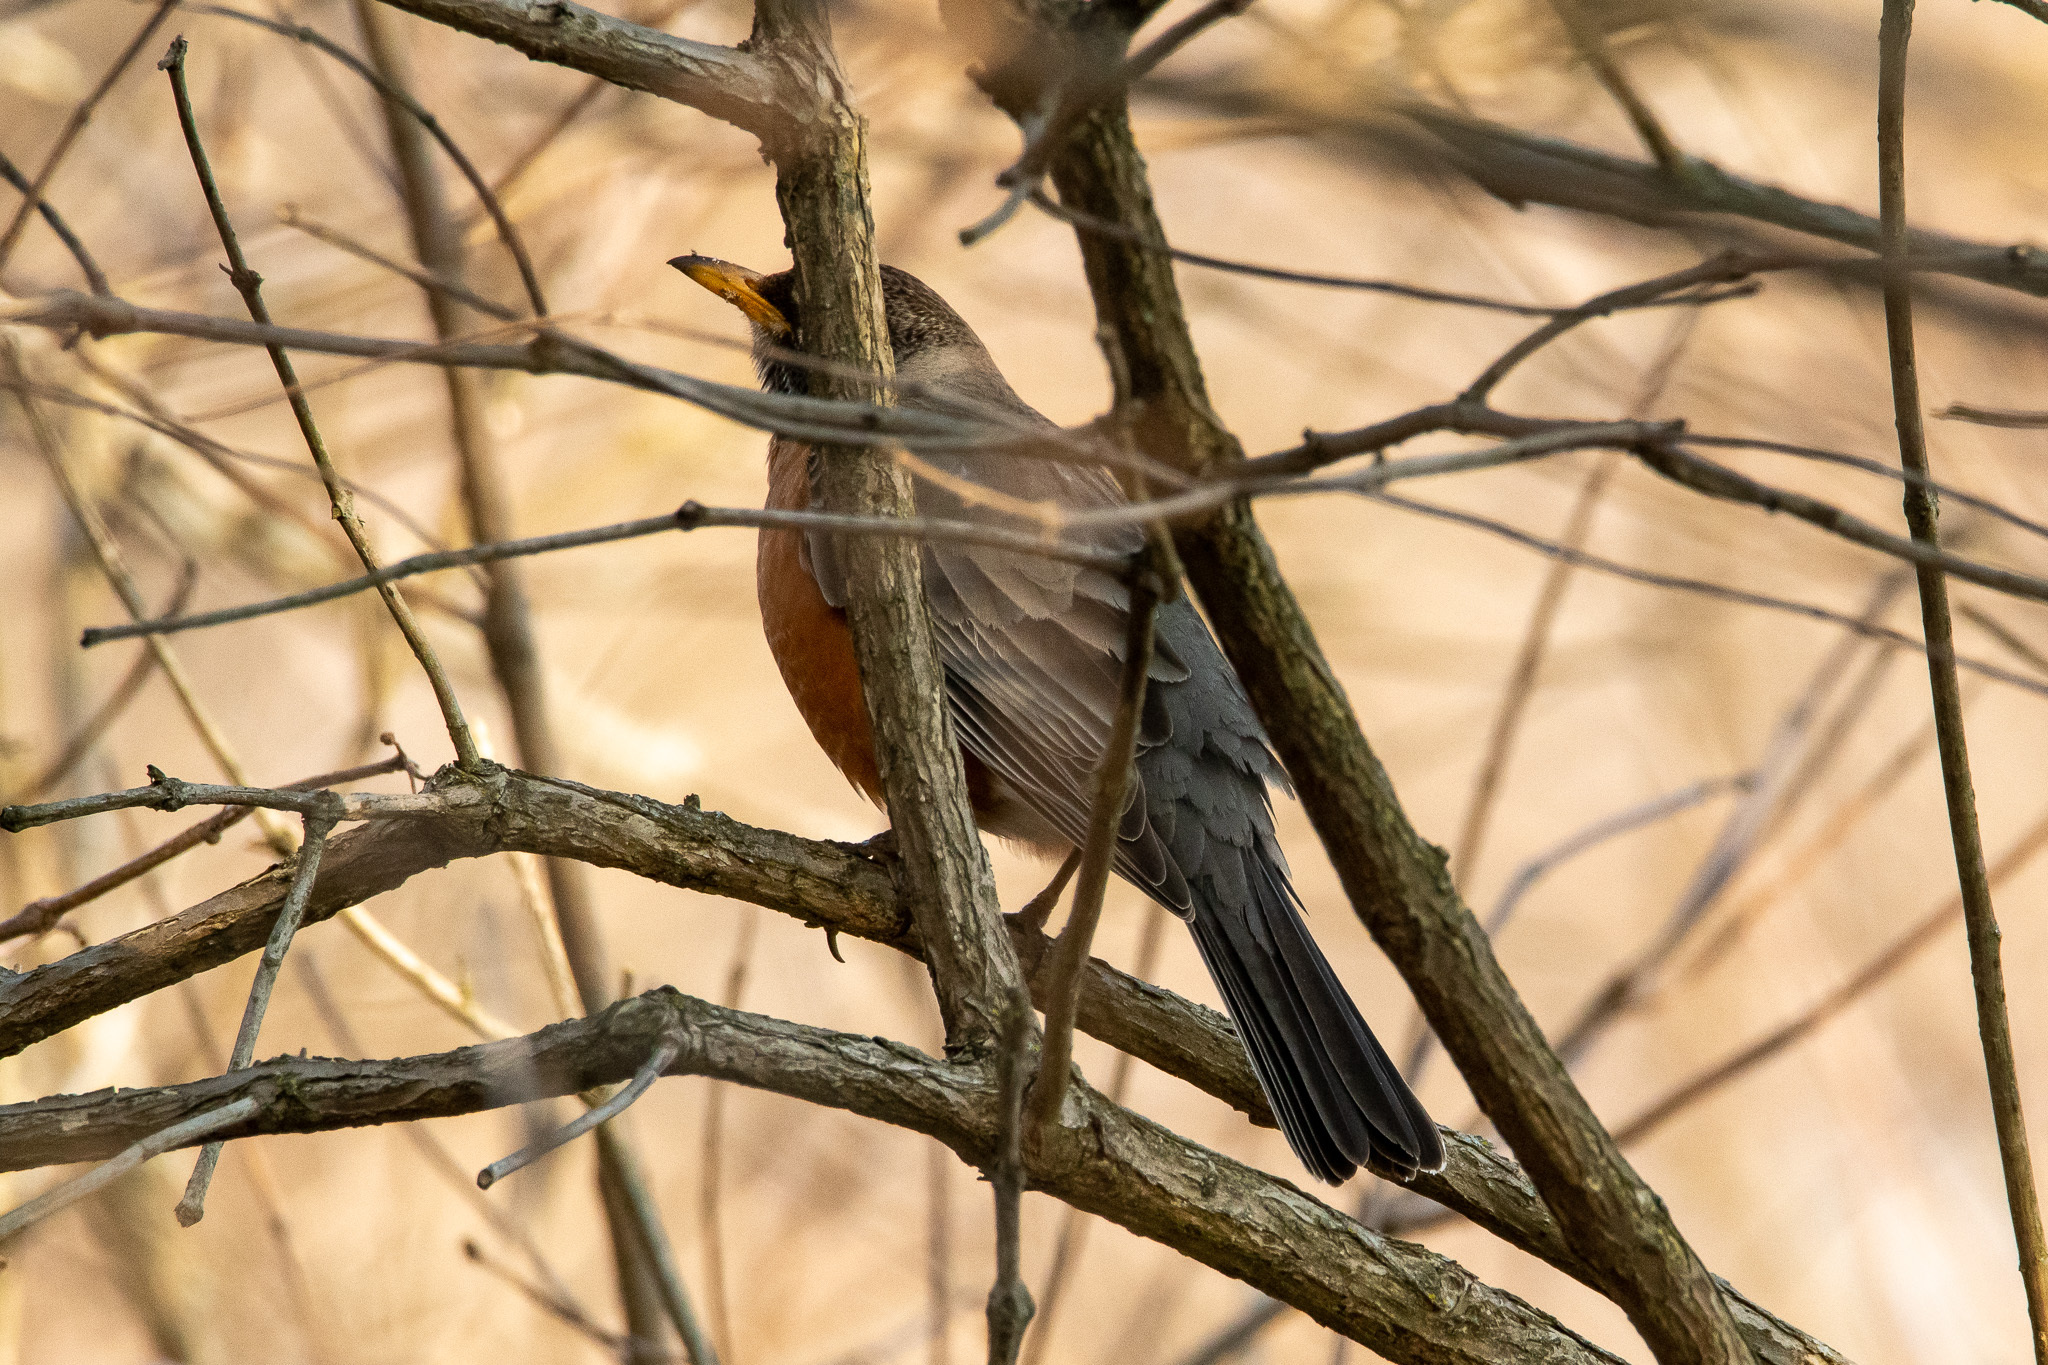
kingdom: Animalia
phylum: Chordata
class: Aves
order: Passeriformes
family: Turdidae
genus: Turdus
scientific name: Turdus migratorius
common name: American robin
